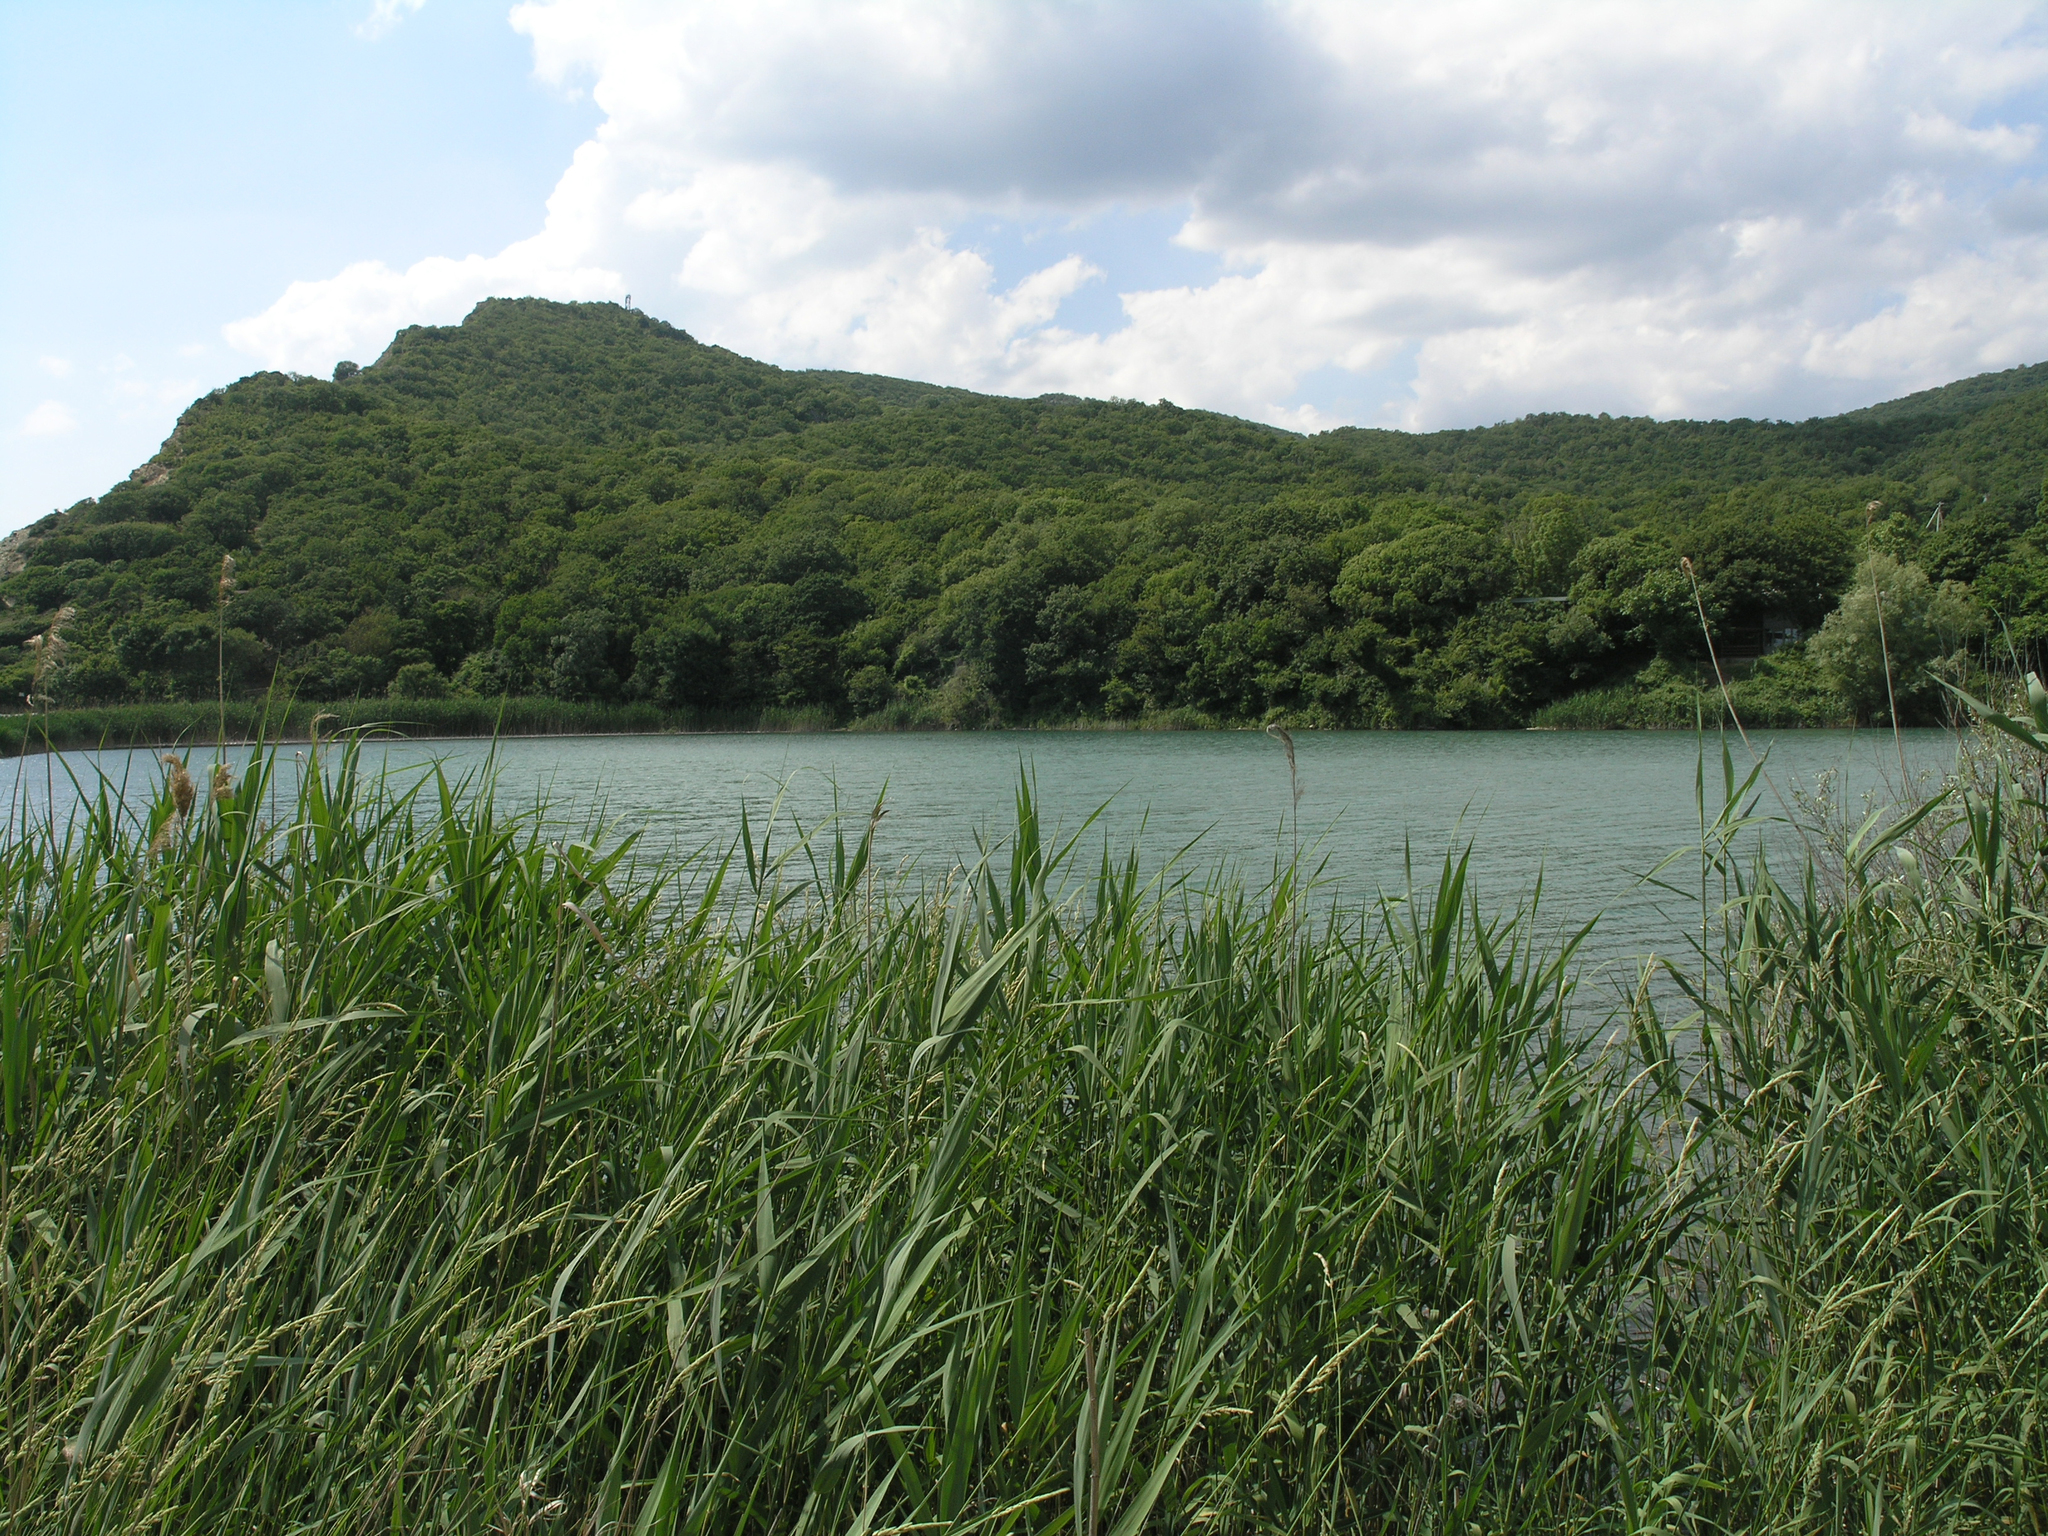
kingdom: Plantae
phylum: Tracheophyta
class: Liliopsida
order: Poales
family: Poaceae
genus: Phragmites
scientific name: Phragmites australis
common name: Common reed
